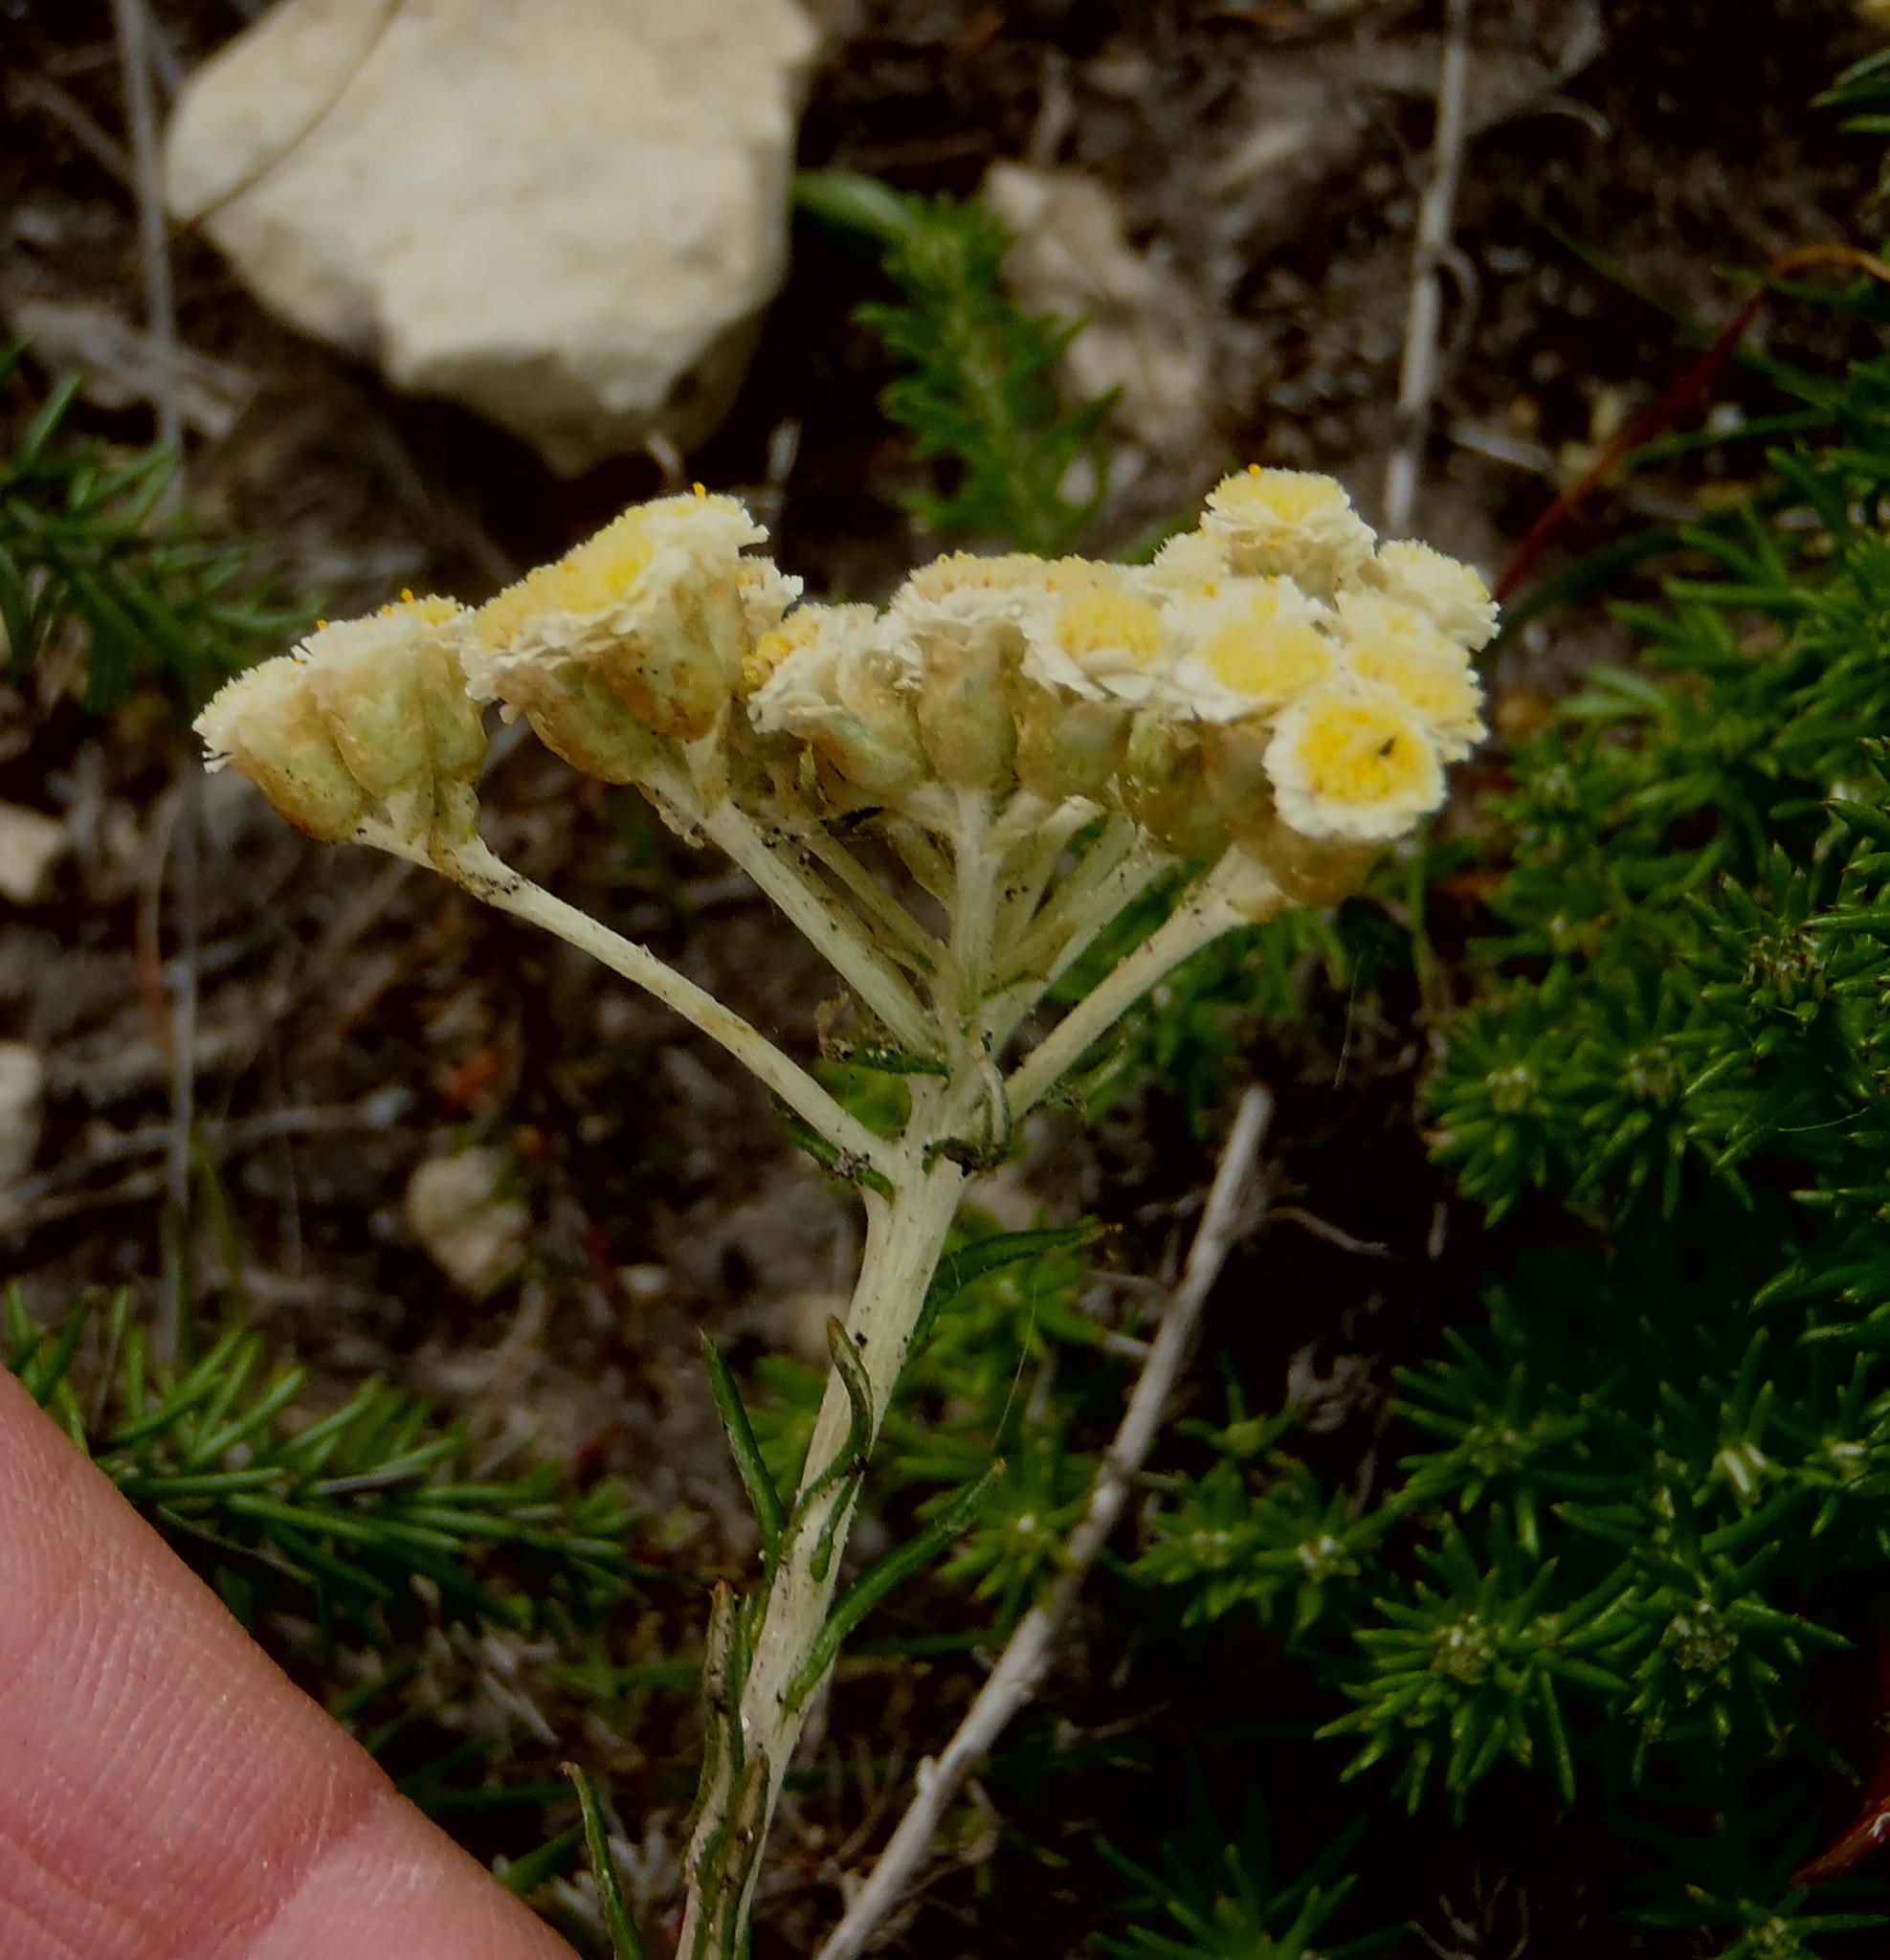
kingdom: Plantae
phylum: Tracheophyta
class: Magnoliopsida
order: Asterales
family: Asteraceae
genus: Helichrysum
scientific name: Helichrysum teretifolium
